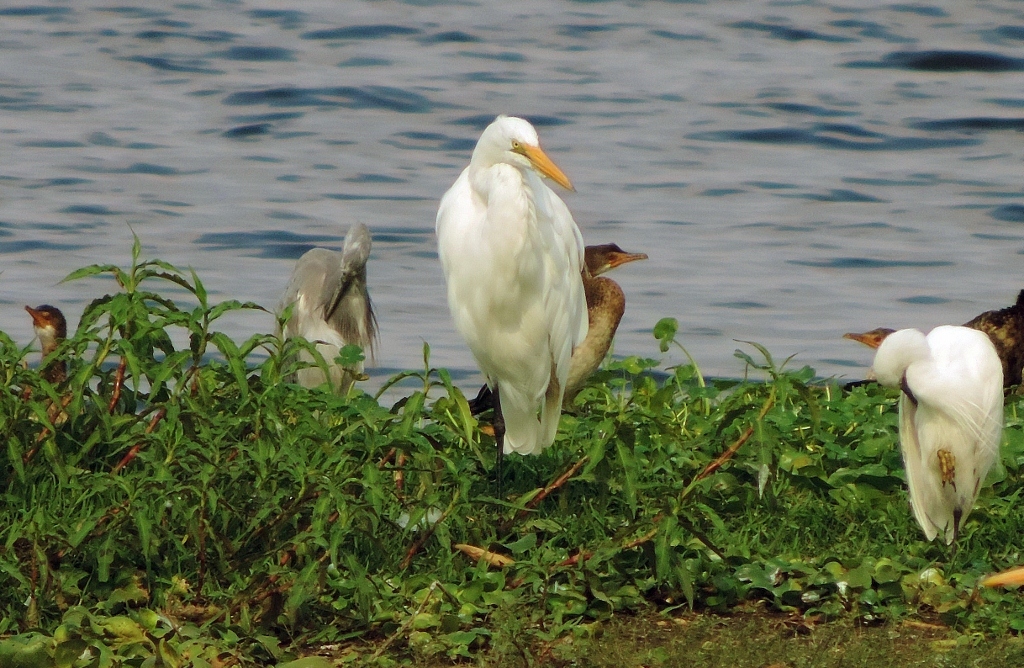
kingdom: Animalia
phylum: Chordata
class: Aves
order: Pelecaniformes
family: Ardeidae
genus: Egretta
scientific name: Egretta garzetta
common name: Little egret
